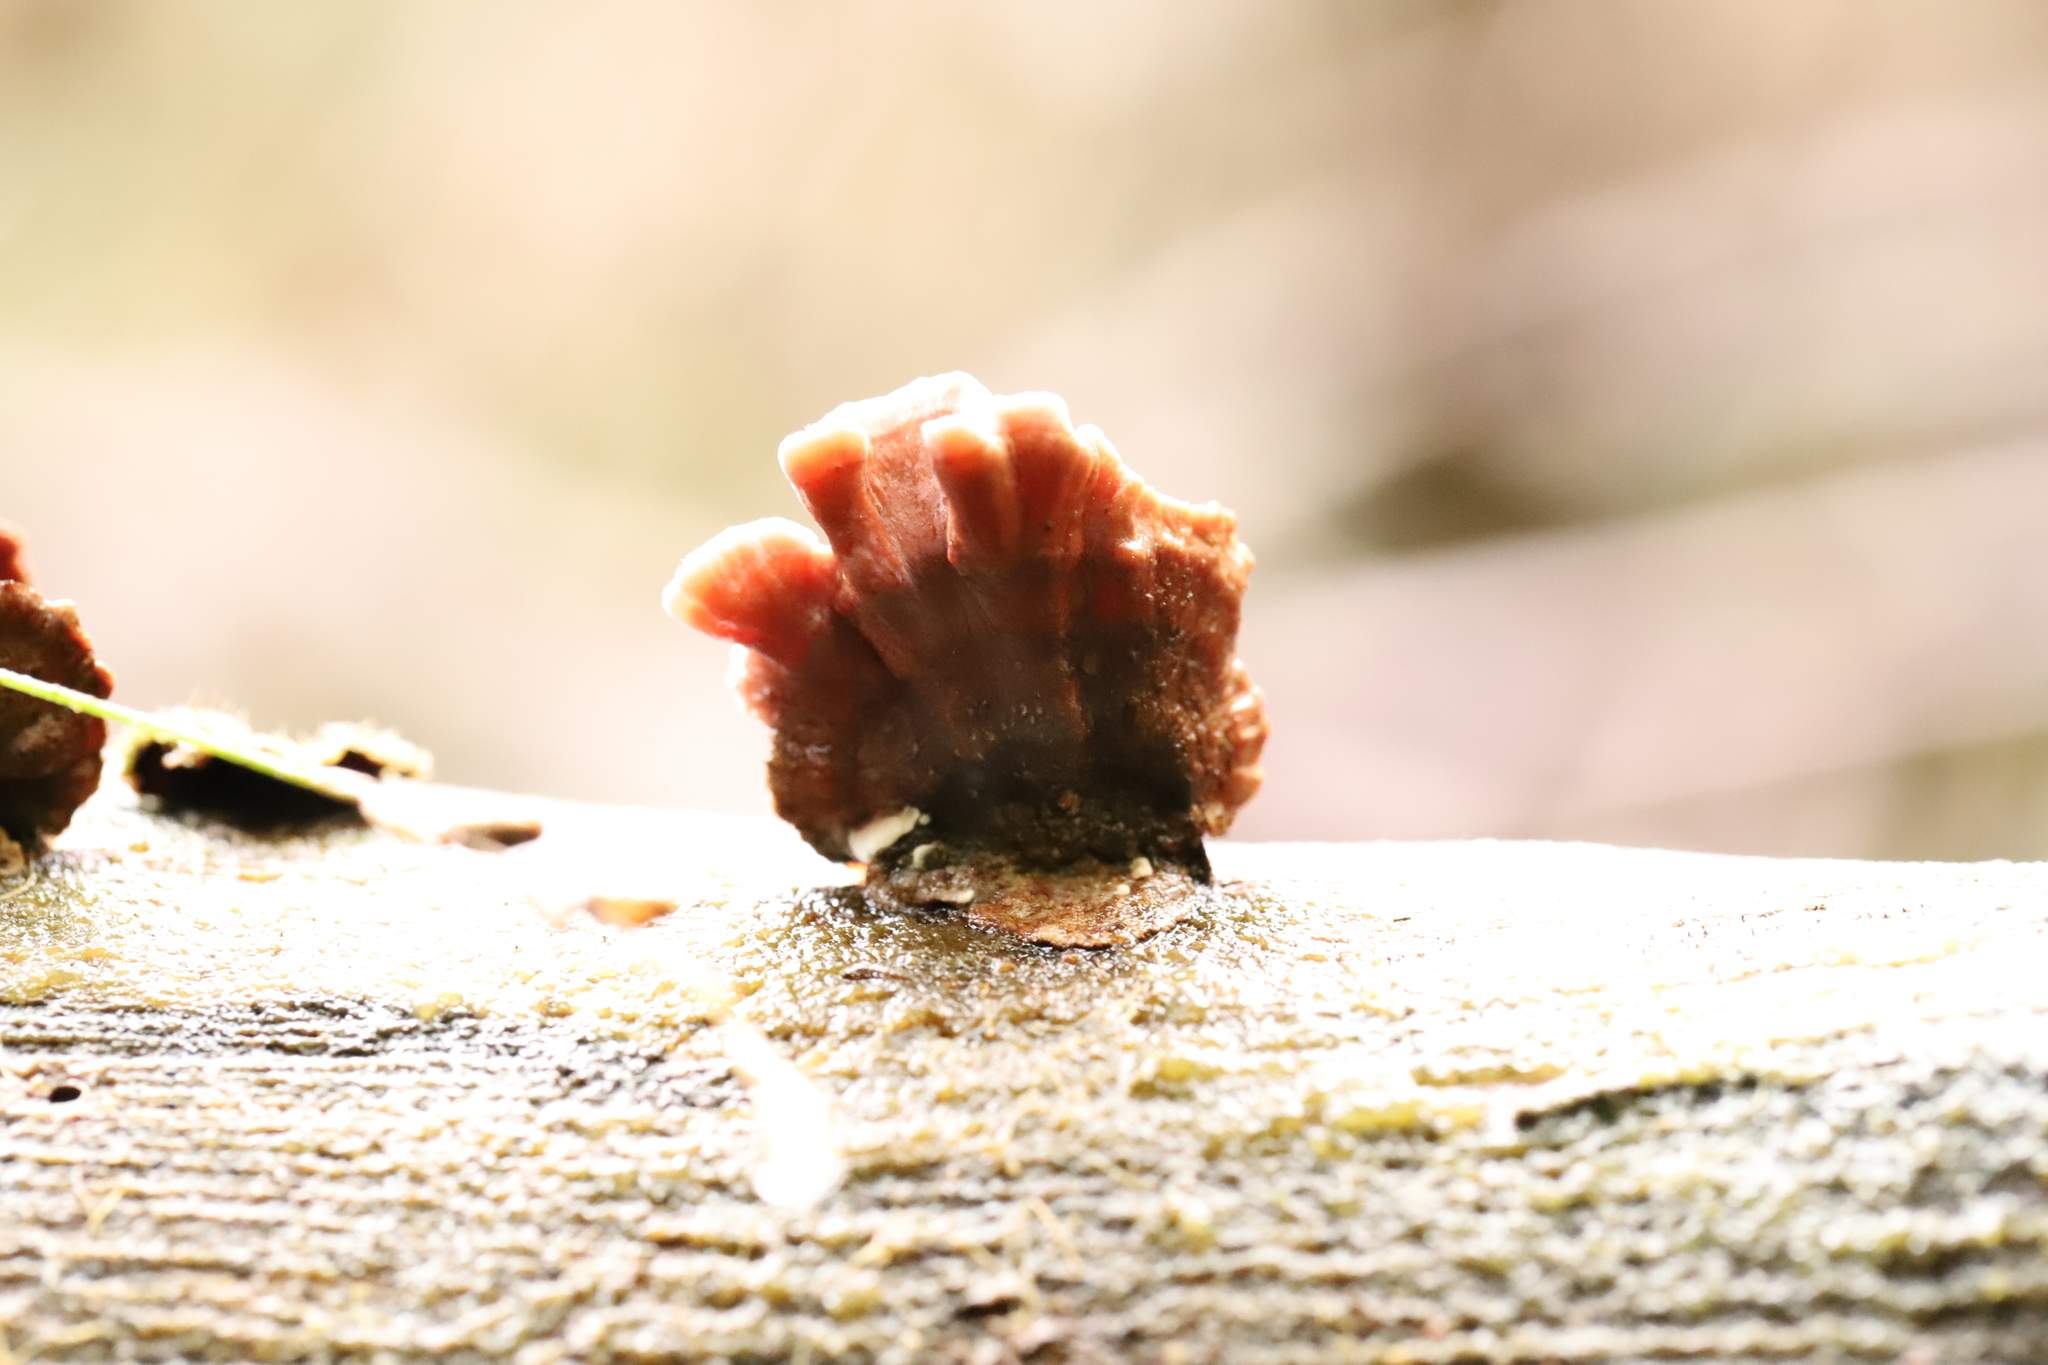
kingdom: Fungi
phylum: Basidiomycota
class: Agaricomycetes
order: Russulales
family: Stereaceae
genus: Xylobolus
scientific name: Xylobolus illudens
